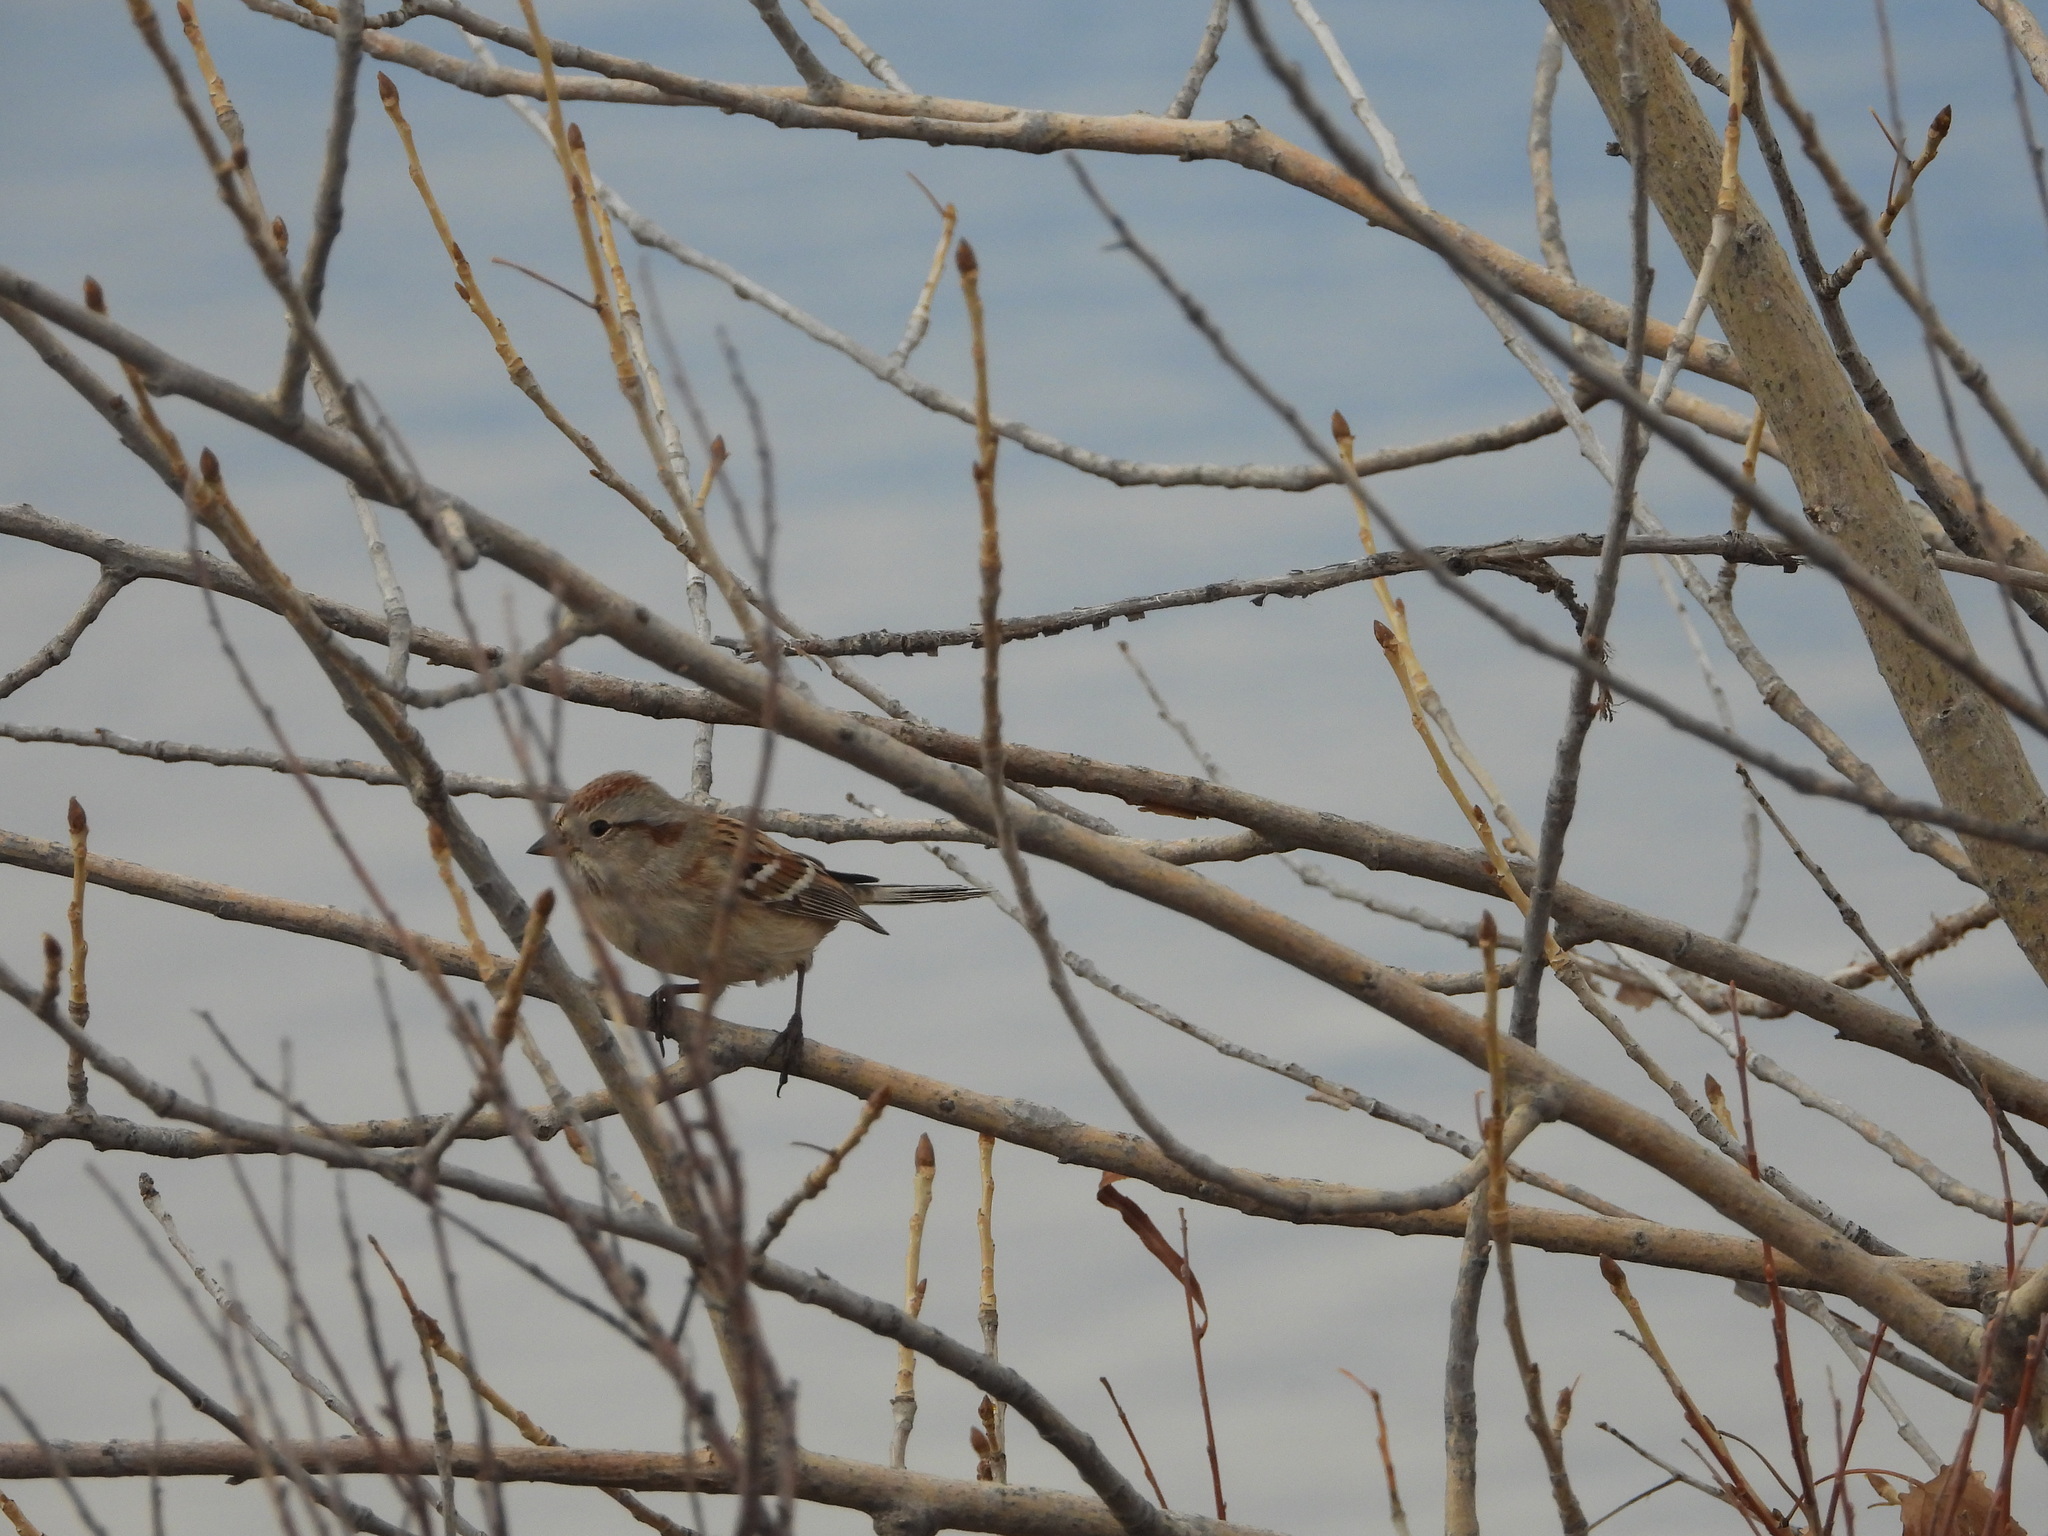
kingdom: Animalia
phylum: Chordata
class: Aves
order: Passeriformes
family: Passerellidae
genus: Spizelloides
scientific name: Spizelloides arborea
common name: American tree sparrow
